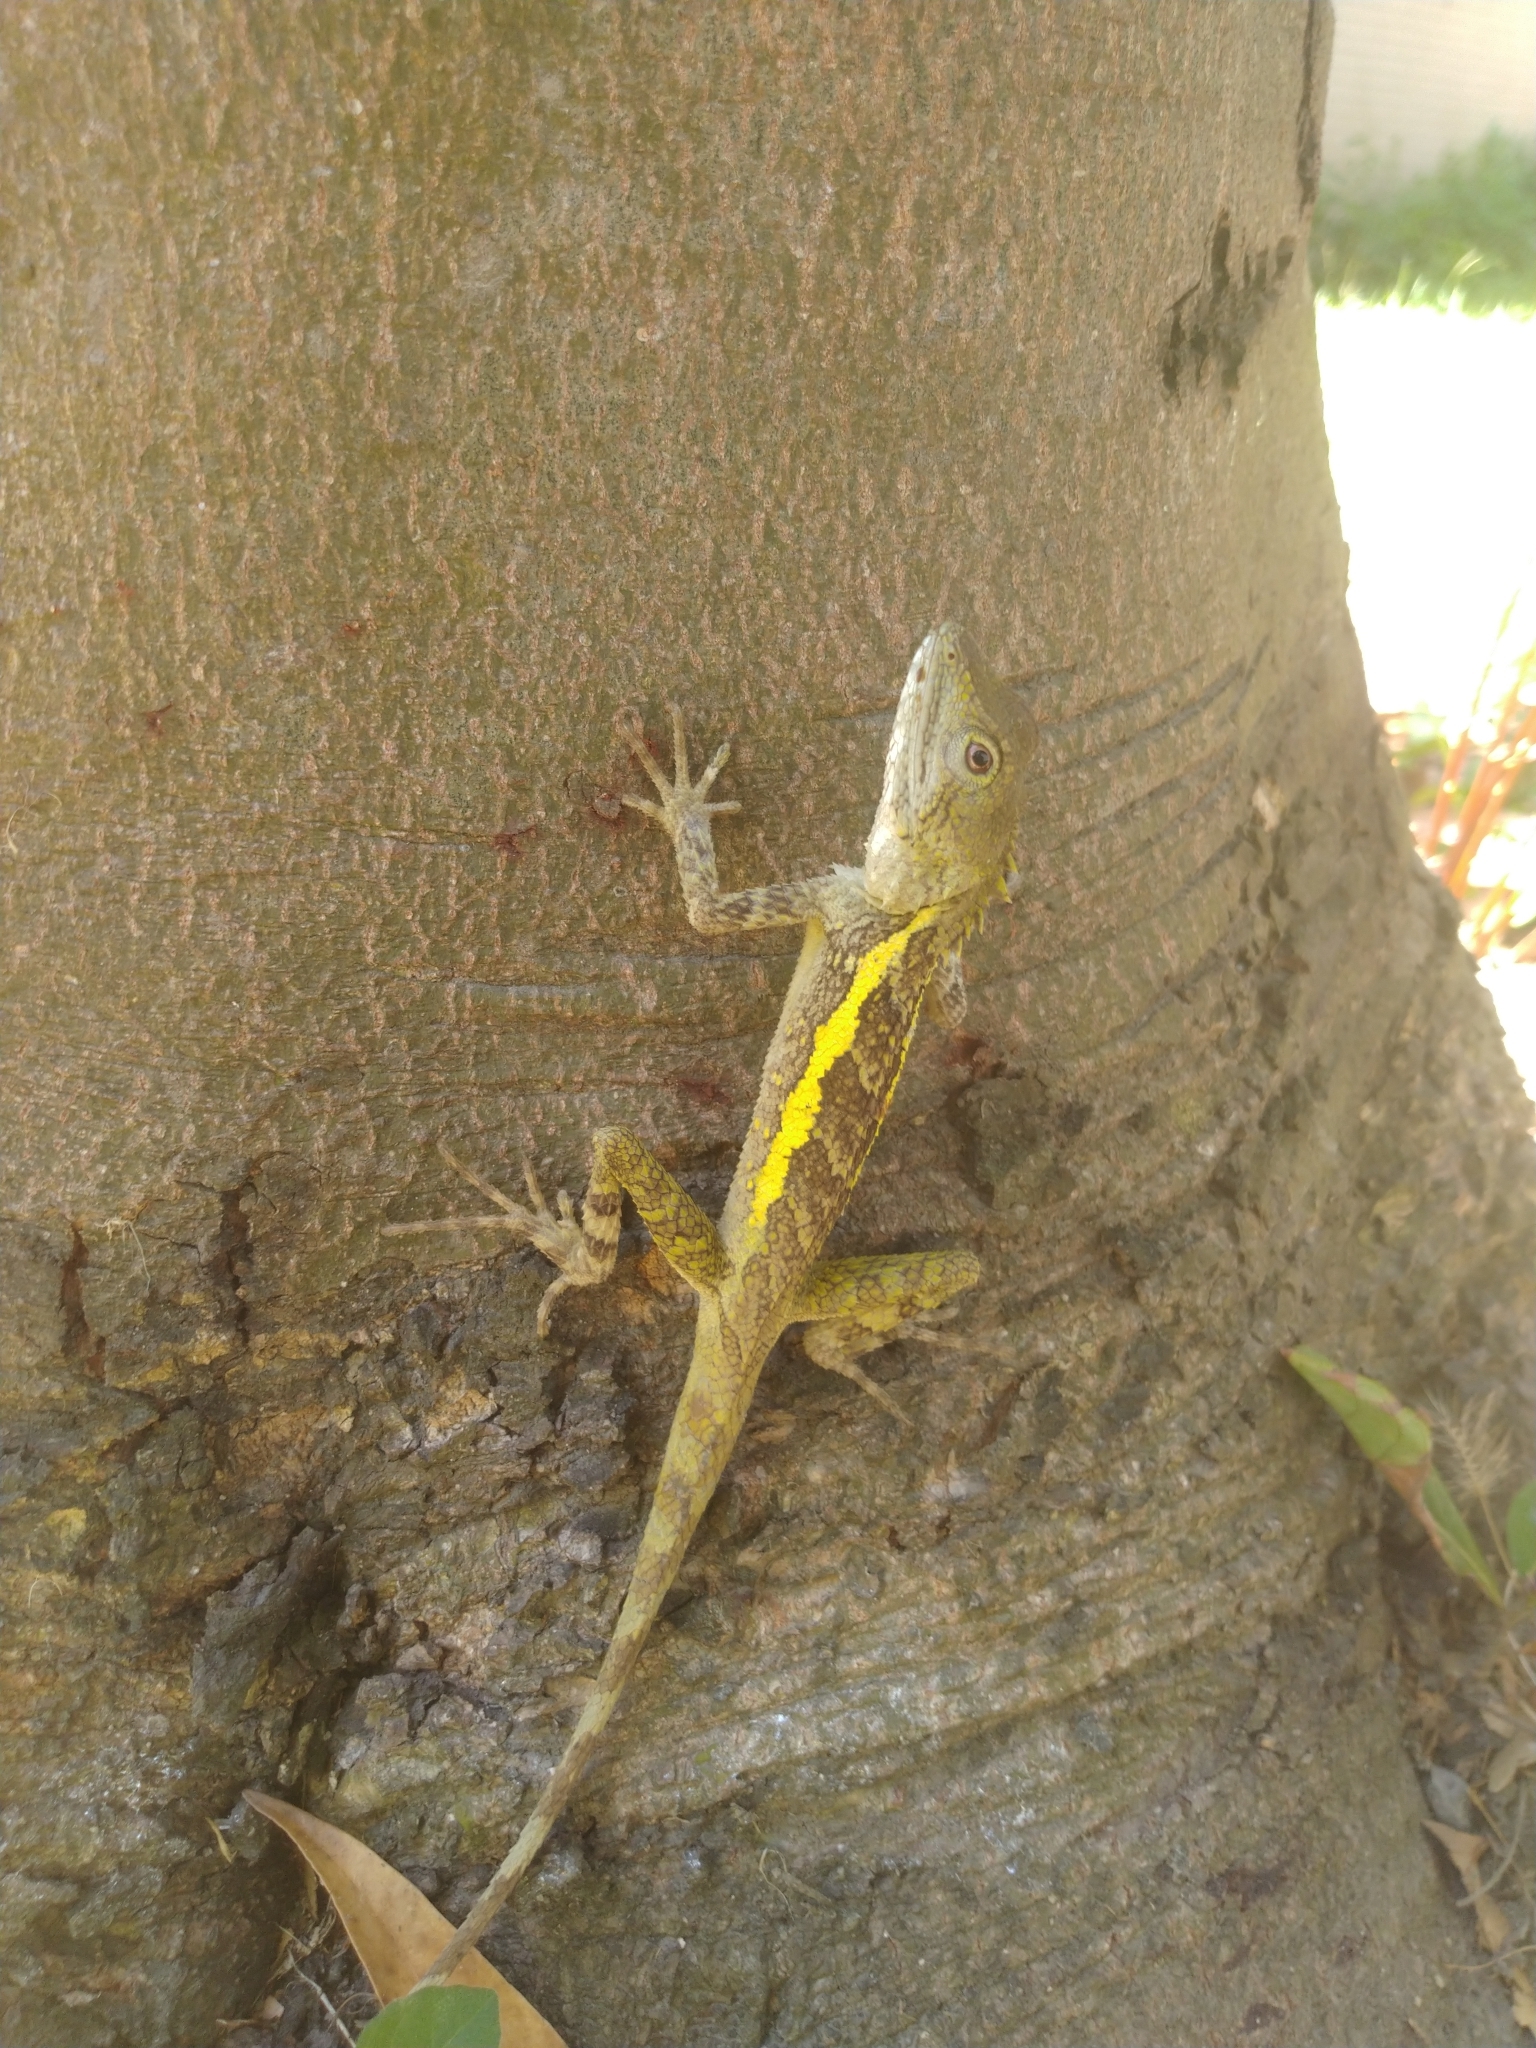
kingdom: Animalia
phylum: Chordata
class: Squamata
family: Agamidae
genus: Diploderma
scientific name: Diploderma swinhonis
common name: Taiwan japalure
